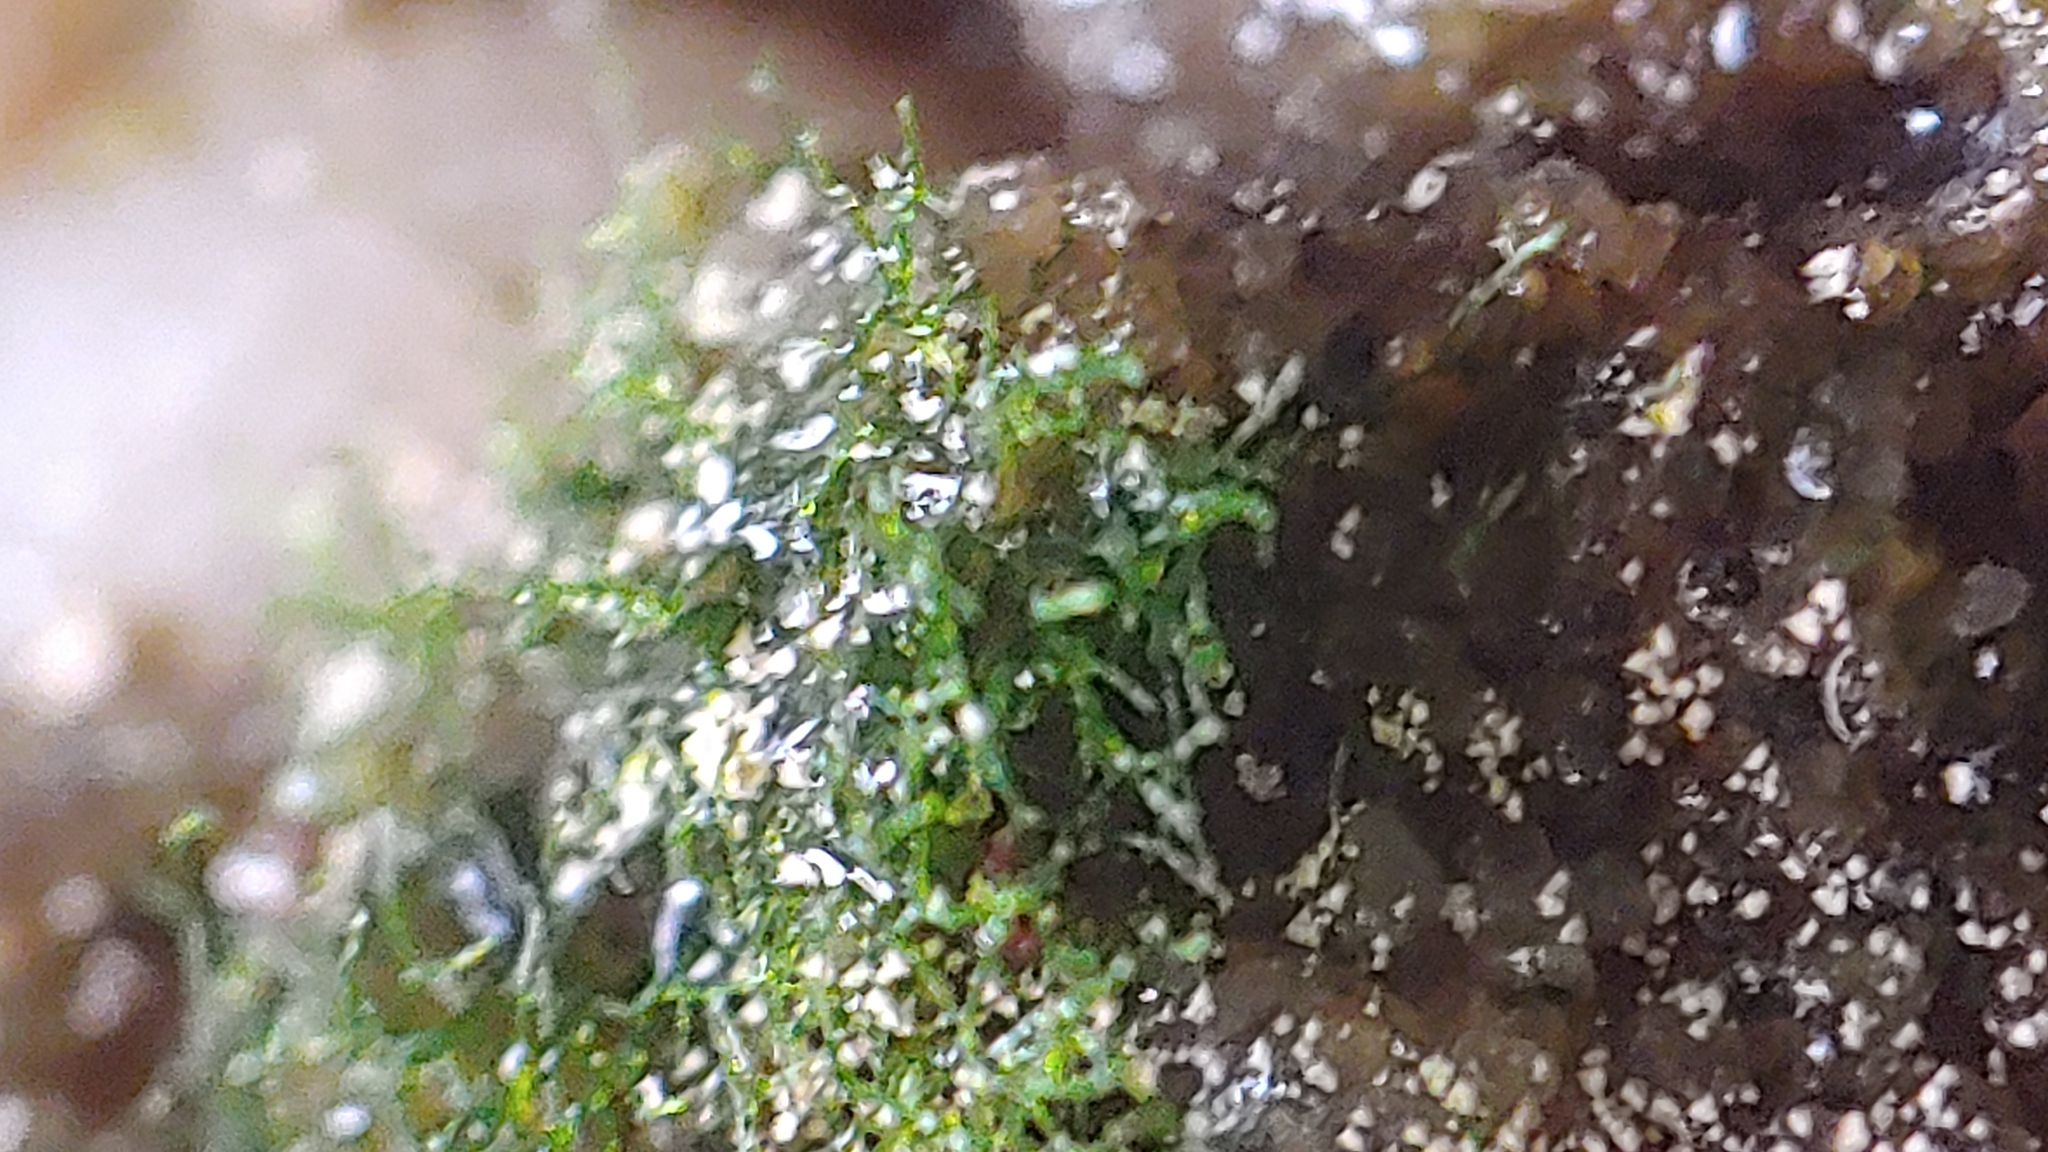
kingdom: Plantae
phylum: Tracheophyta
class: Polypodiopsida
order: Hymenophyllales
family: Hymenophyllaceae
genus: Crepidomanes
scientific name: Crepidomanes intricatum
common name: Weft fern
